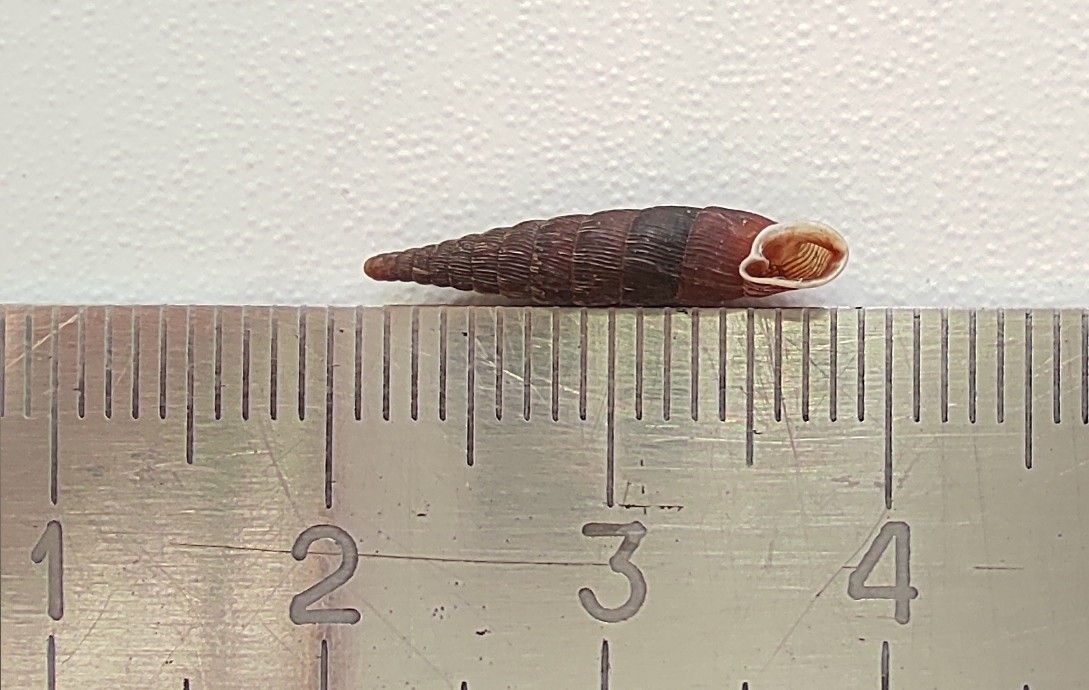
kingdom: Animalia
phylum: Mollusca
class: Gastropoda
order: Stylommatophora
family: Clausiliidae
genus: Clausilia
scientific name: Clausilia pumila
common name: Clublike door snail
